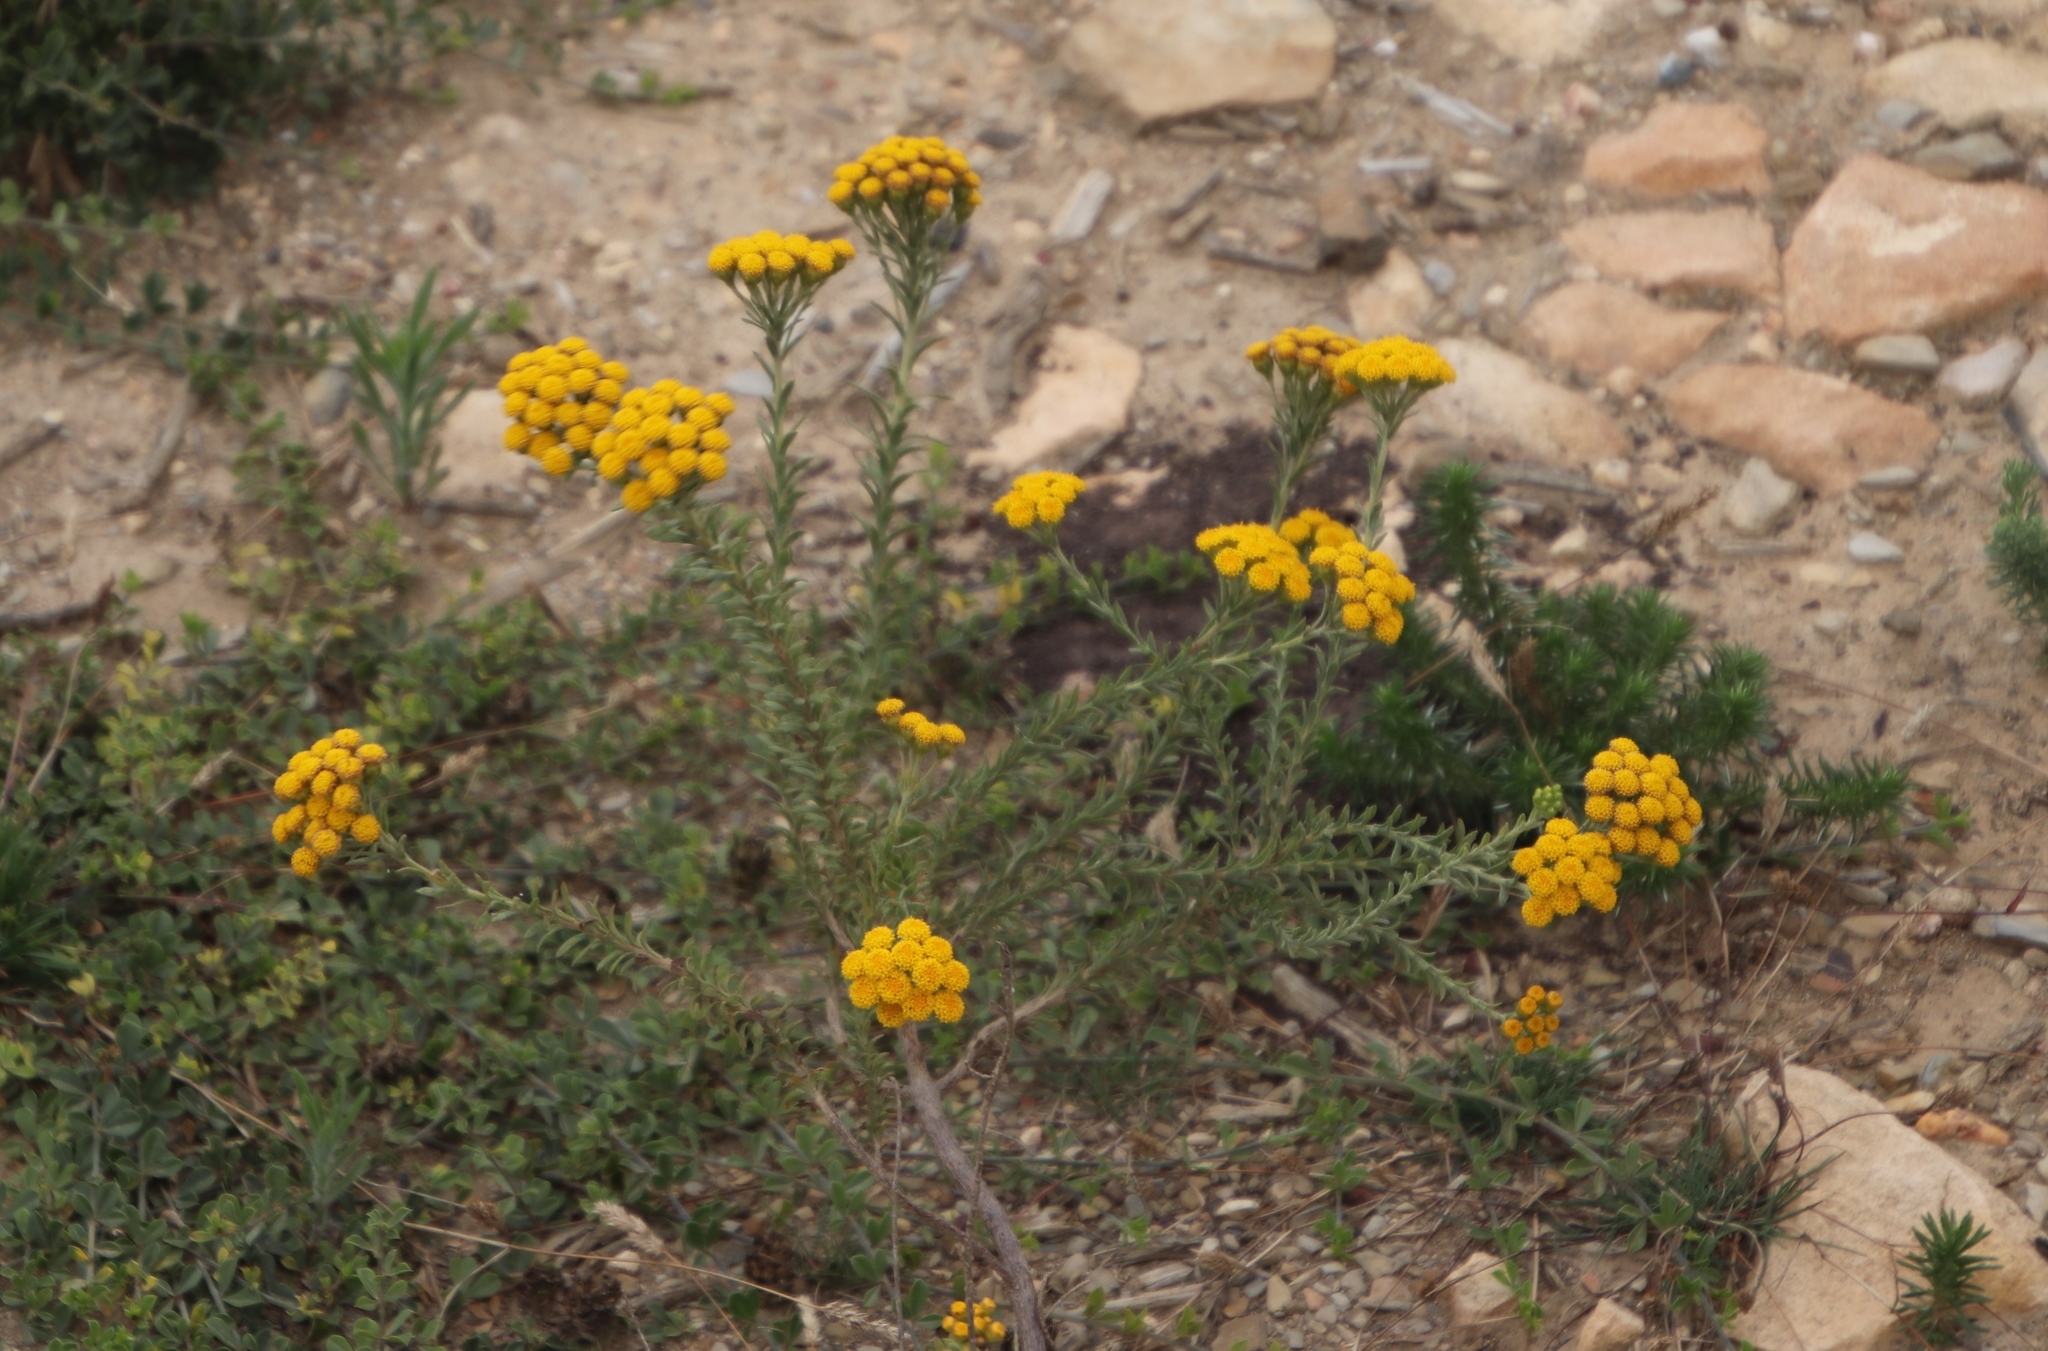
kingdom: Plantae
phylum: Tracheophyta
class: Magnoliopsida
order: Asterales
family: Asteraceae
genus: Athanasia
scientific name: Athanasia trifurcata
